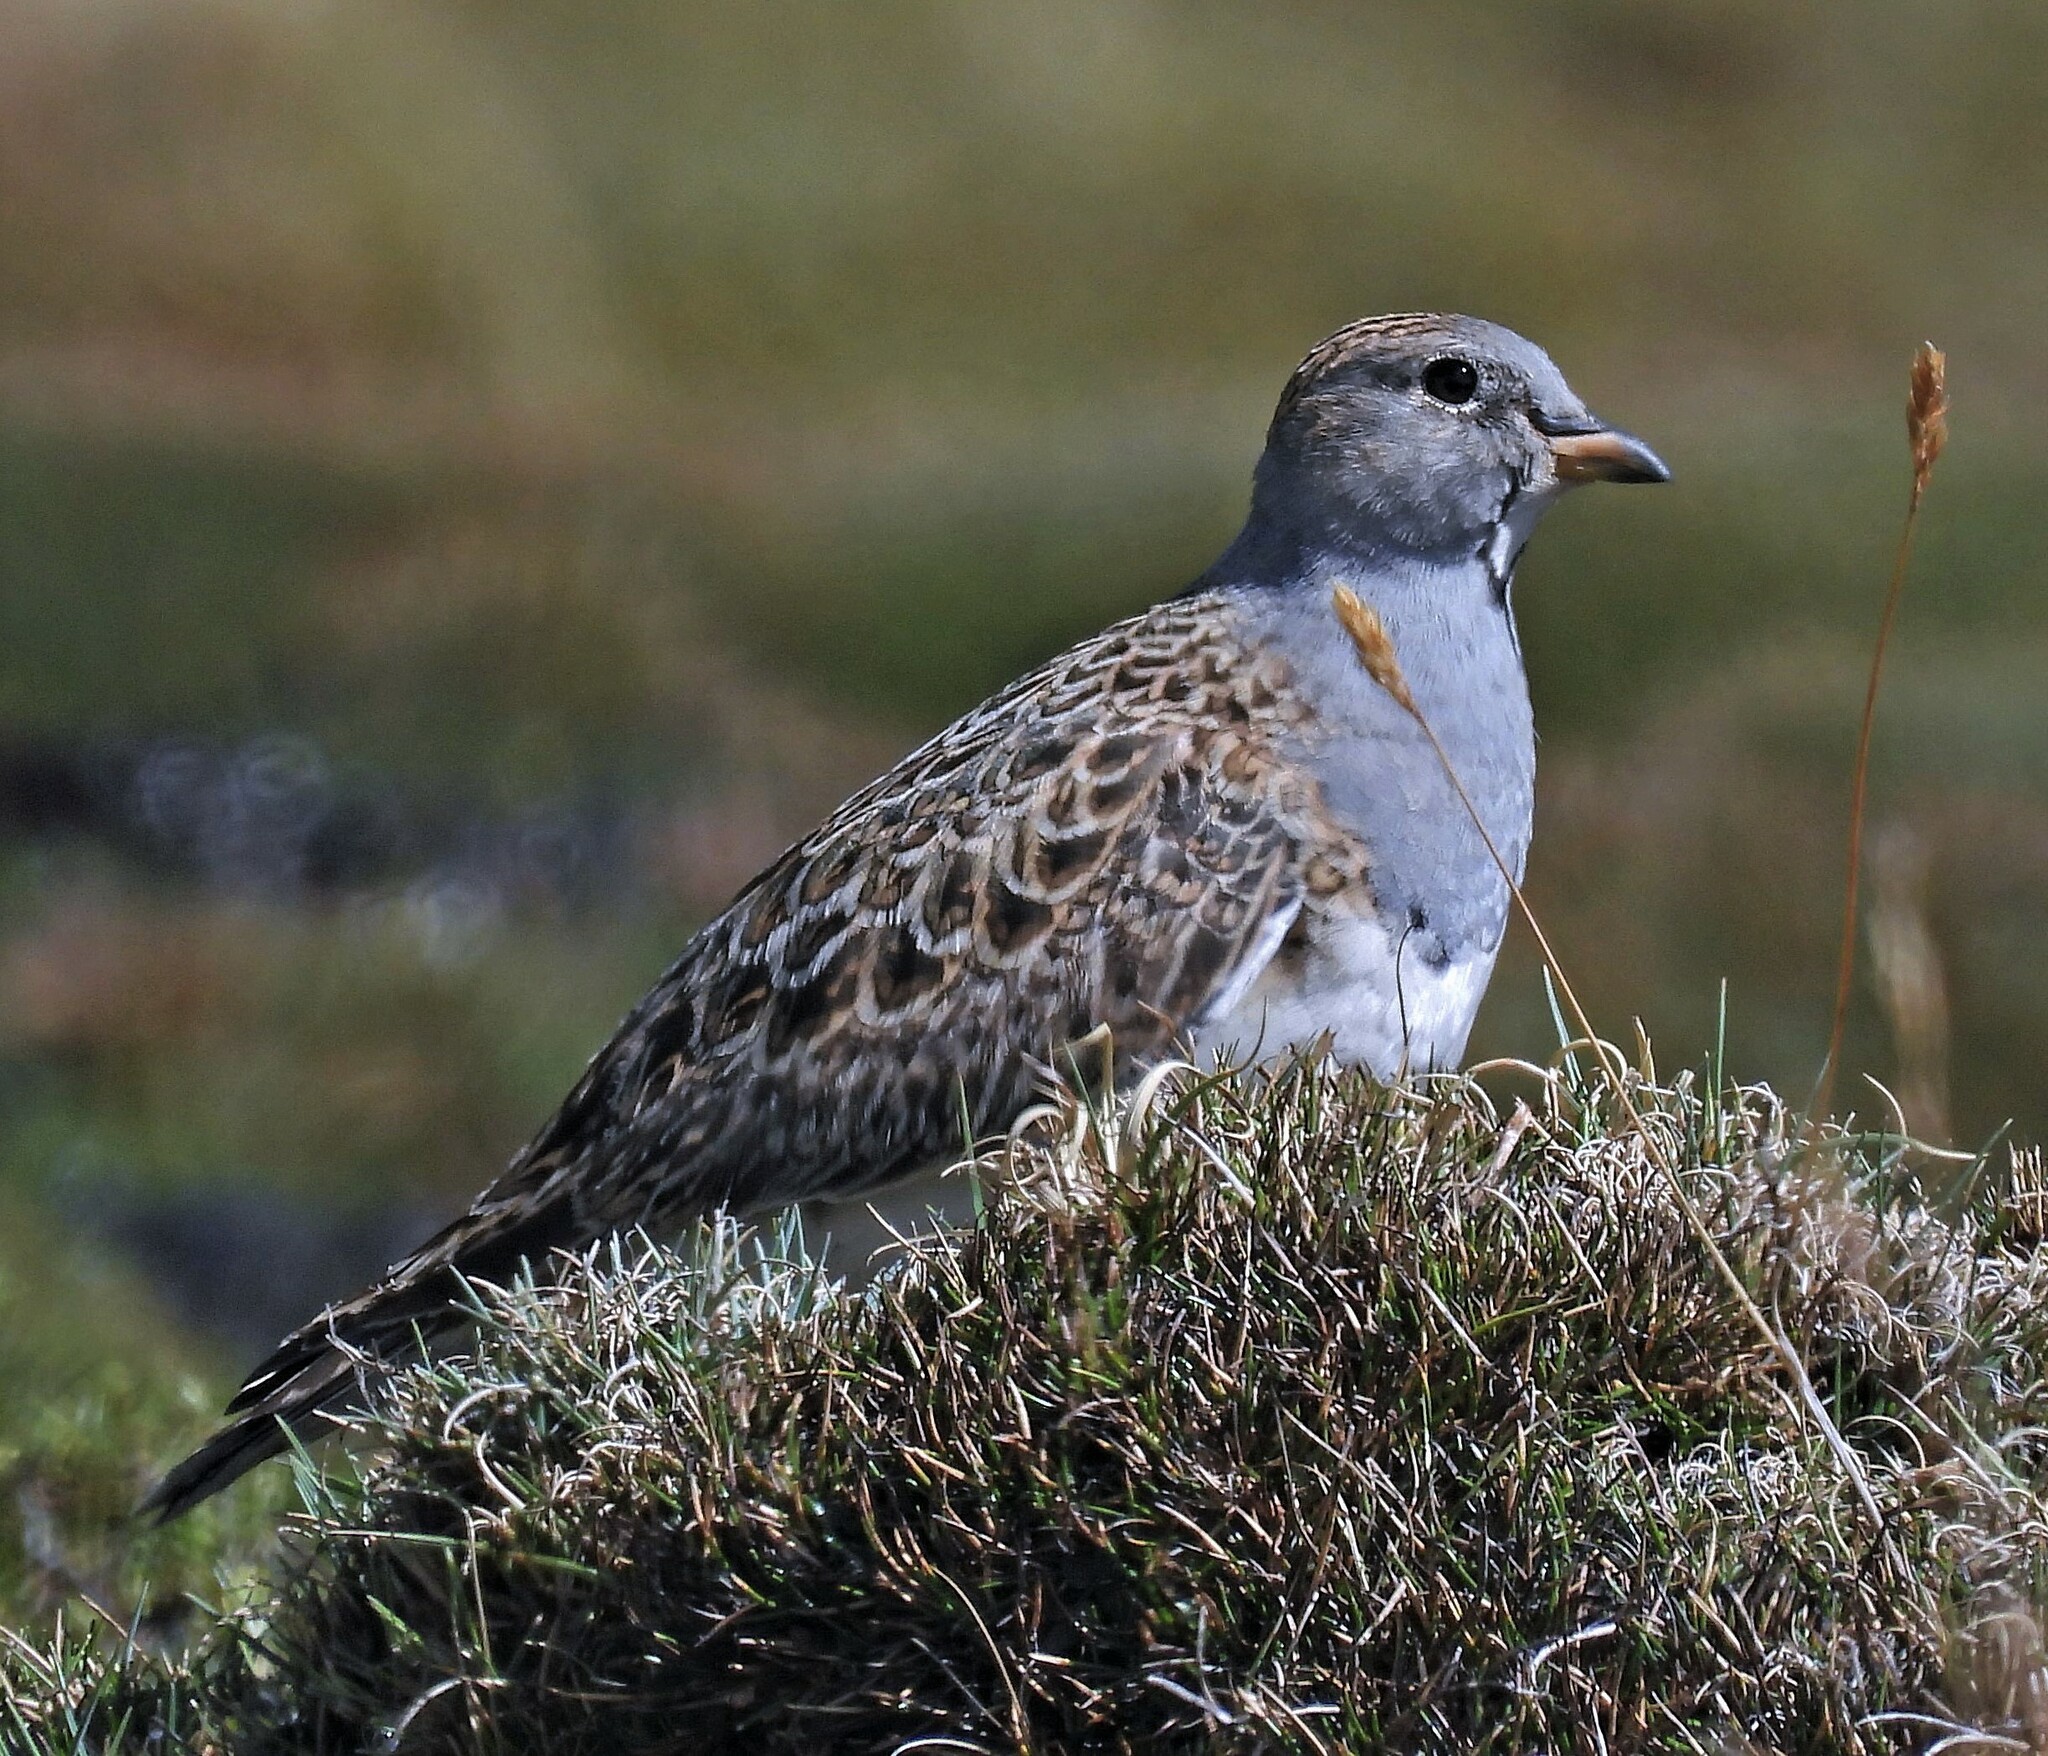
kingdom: Animalia
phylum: Chordata
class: Aves
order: Charadriiformes
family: Thinocoridae
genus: Thinocorus
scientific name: Thinocorus orbignyianus
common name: Grey-breasted seedsnipe
